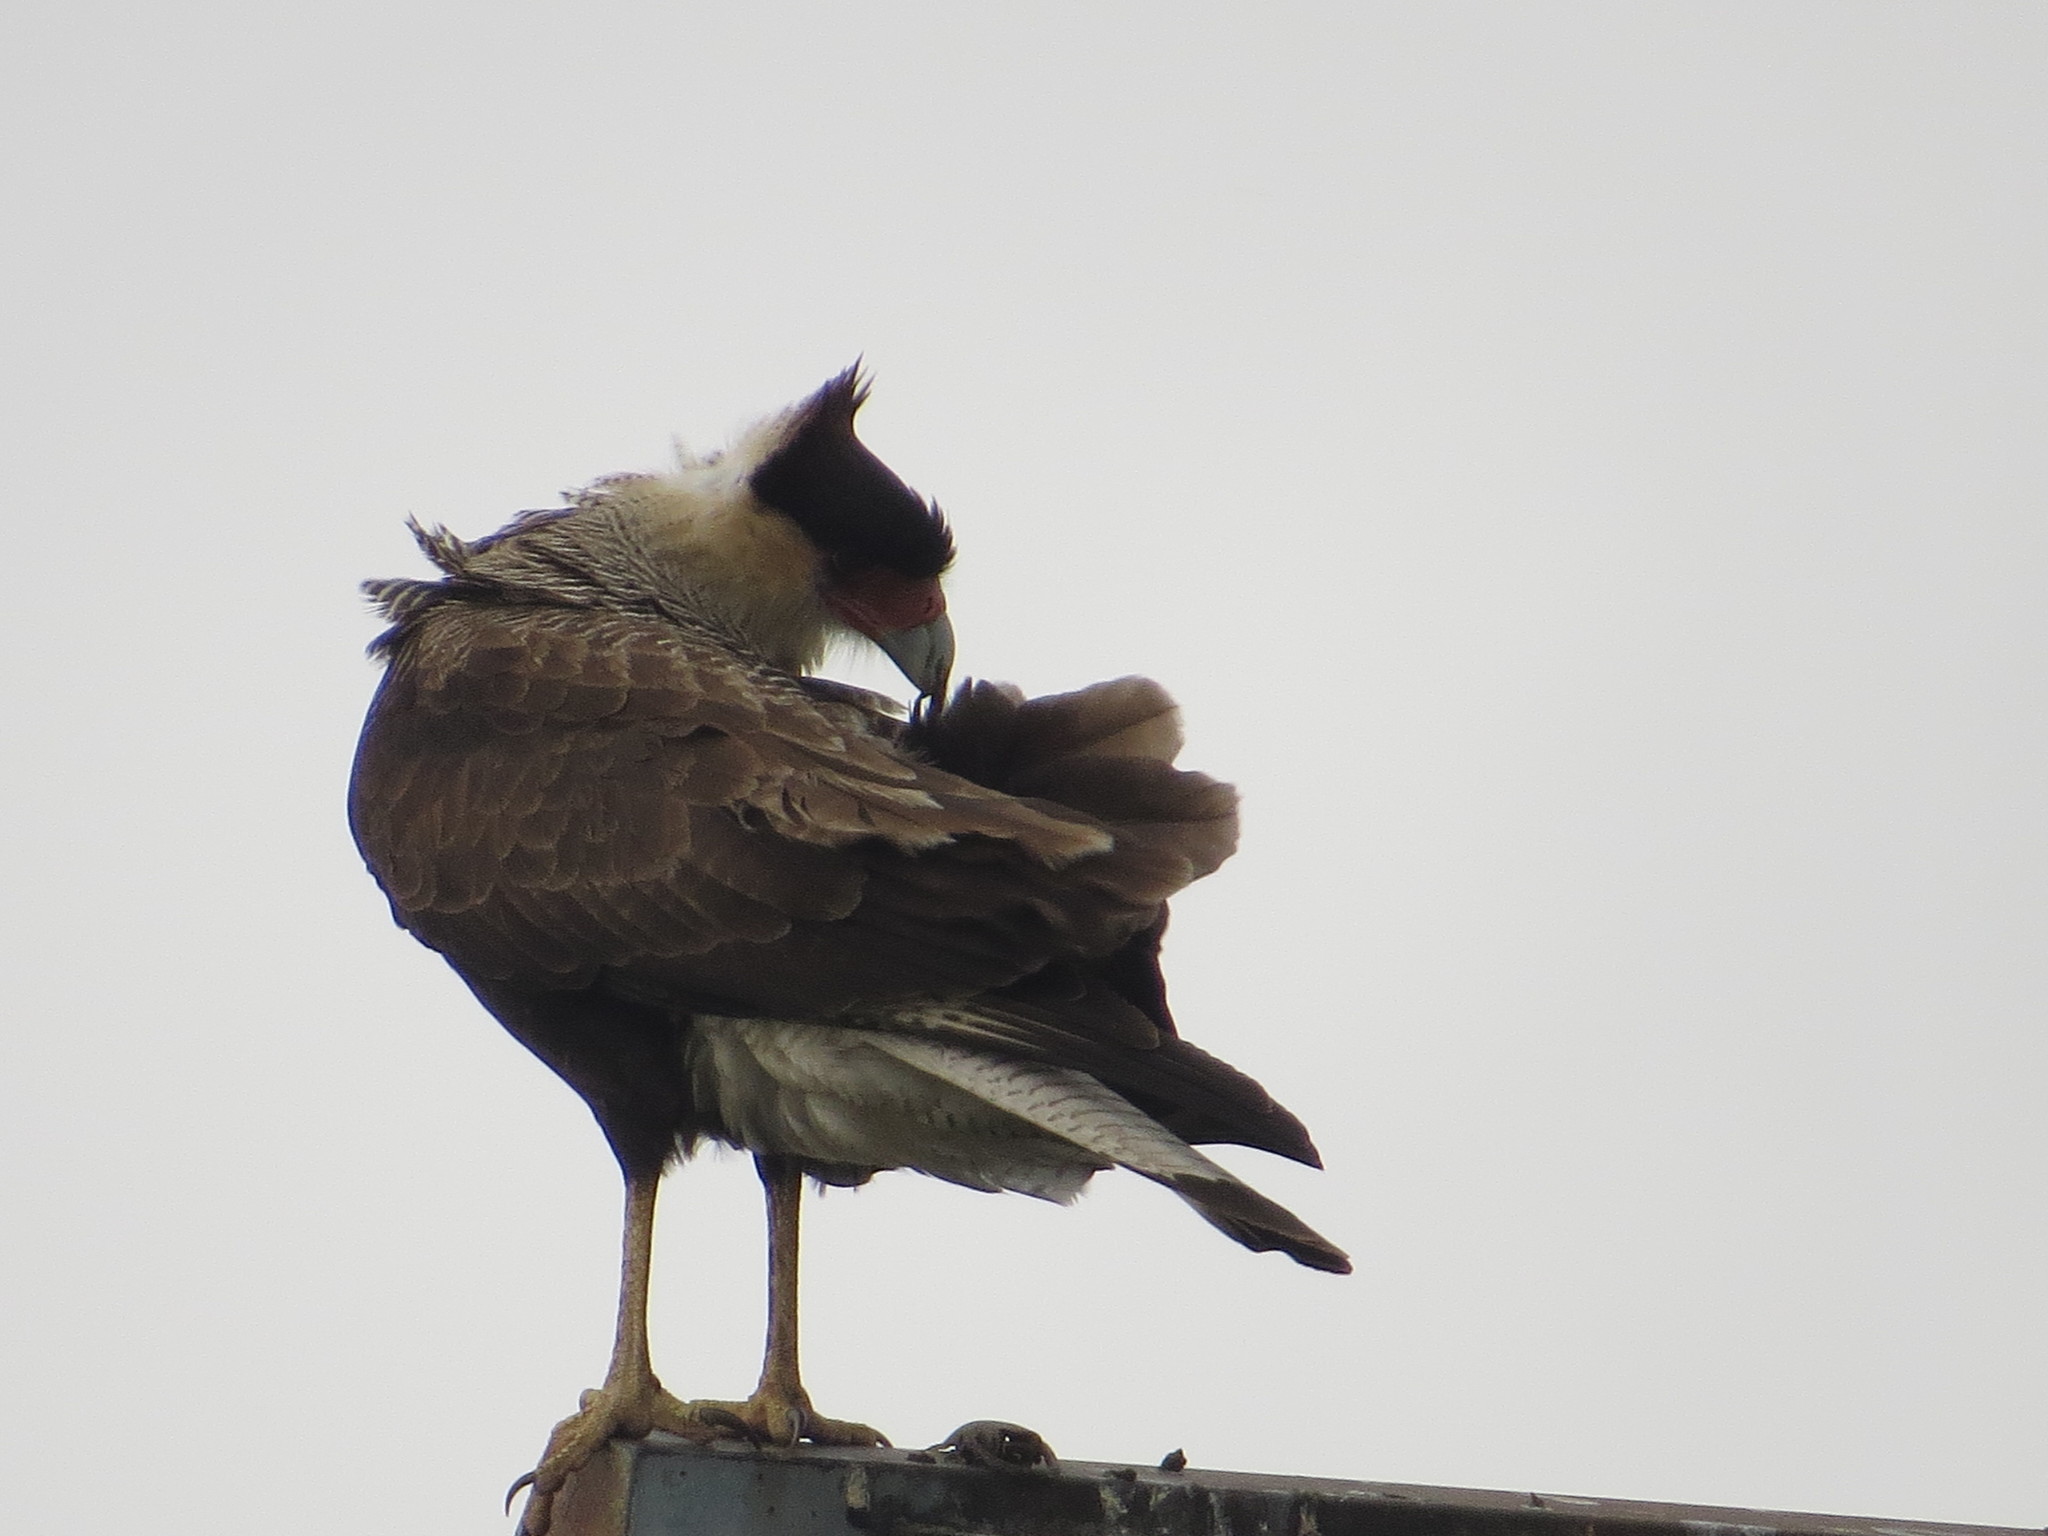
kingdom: Animalia
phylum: Chordata
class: Aves
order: Falconiformes
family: Falconidae
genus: Caracara
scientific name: Caracara plancus
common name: Southern caracara
